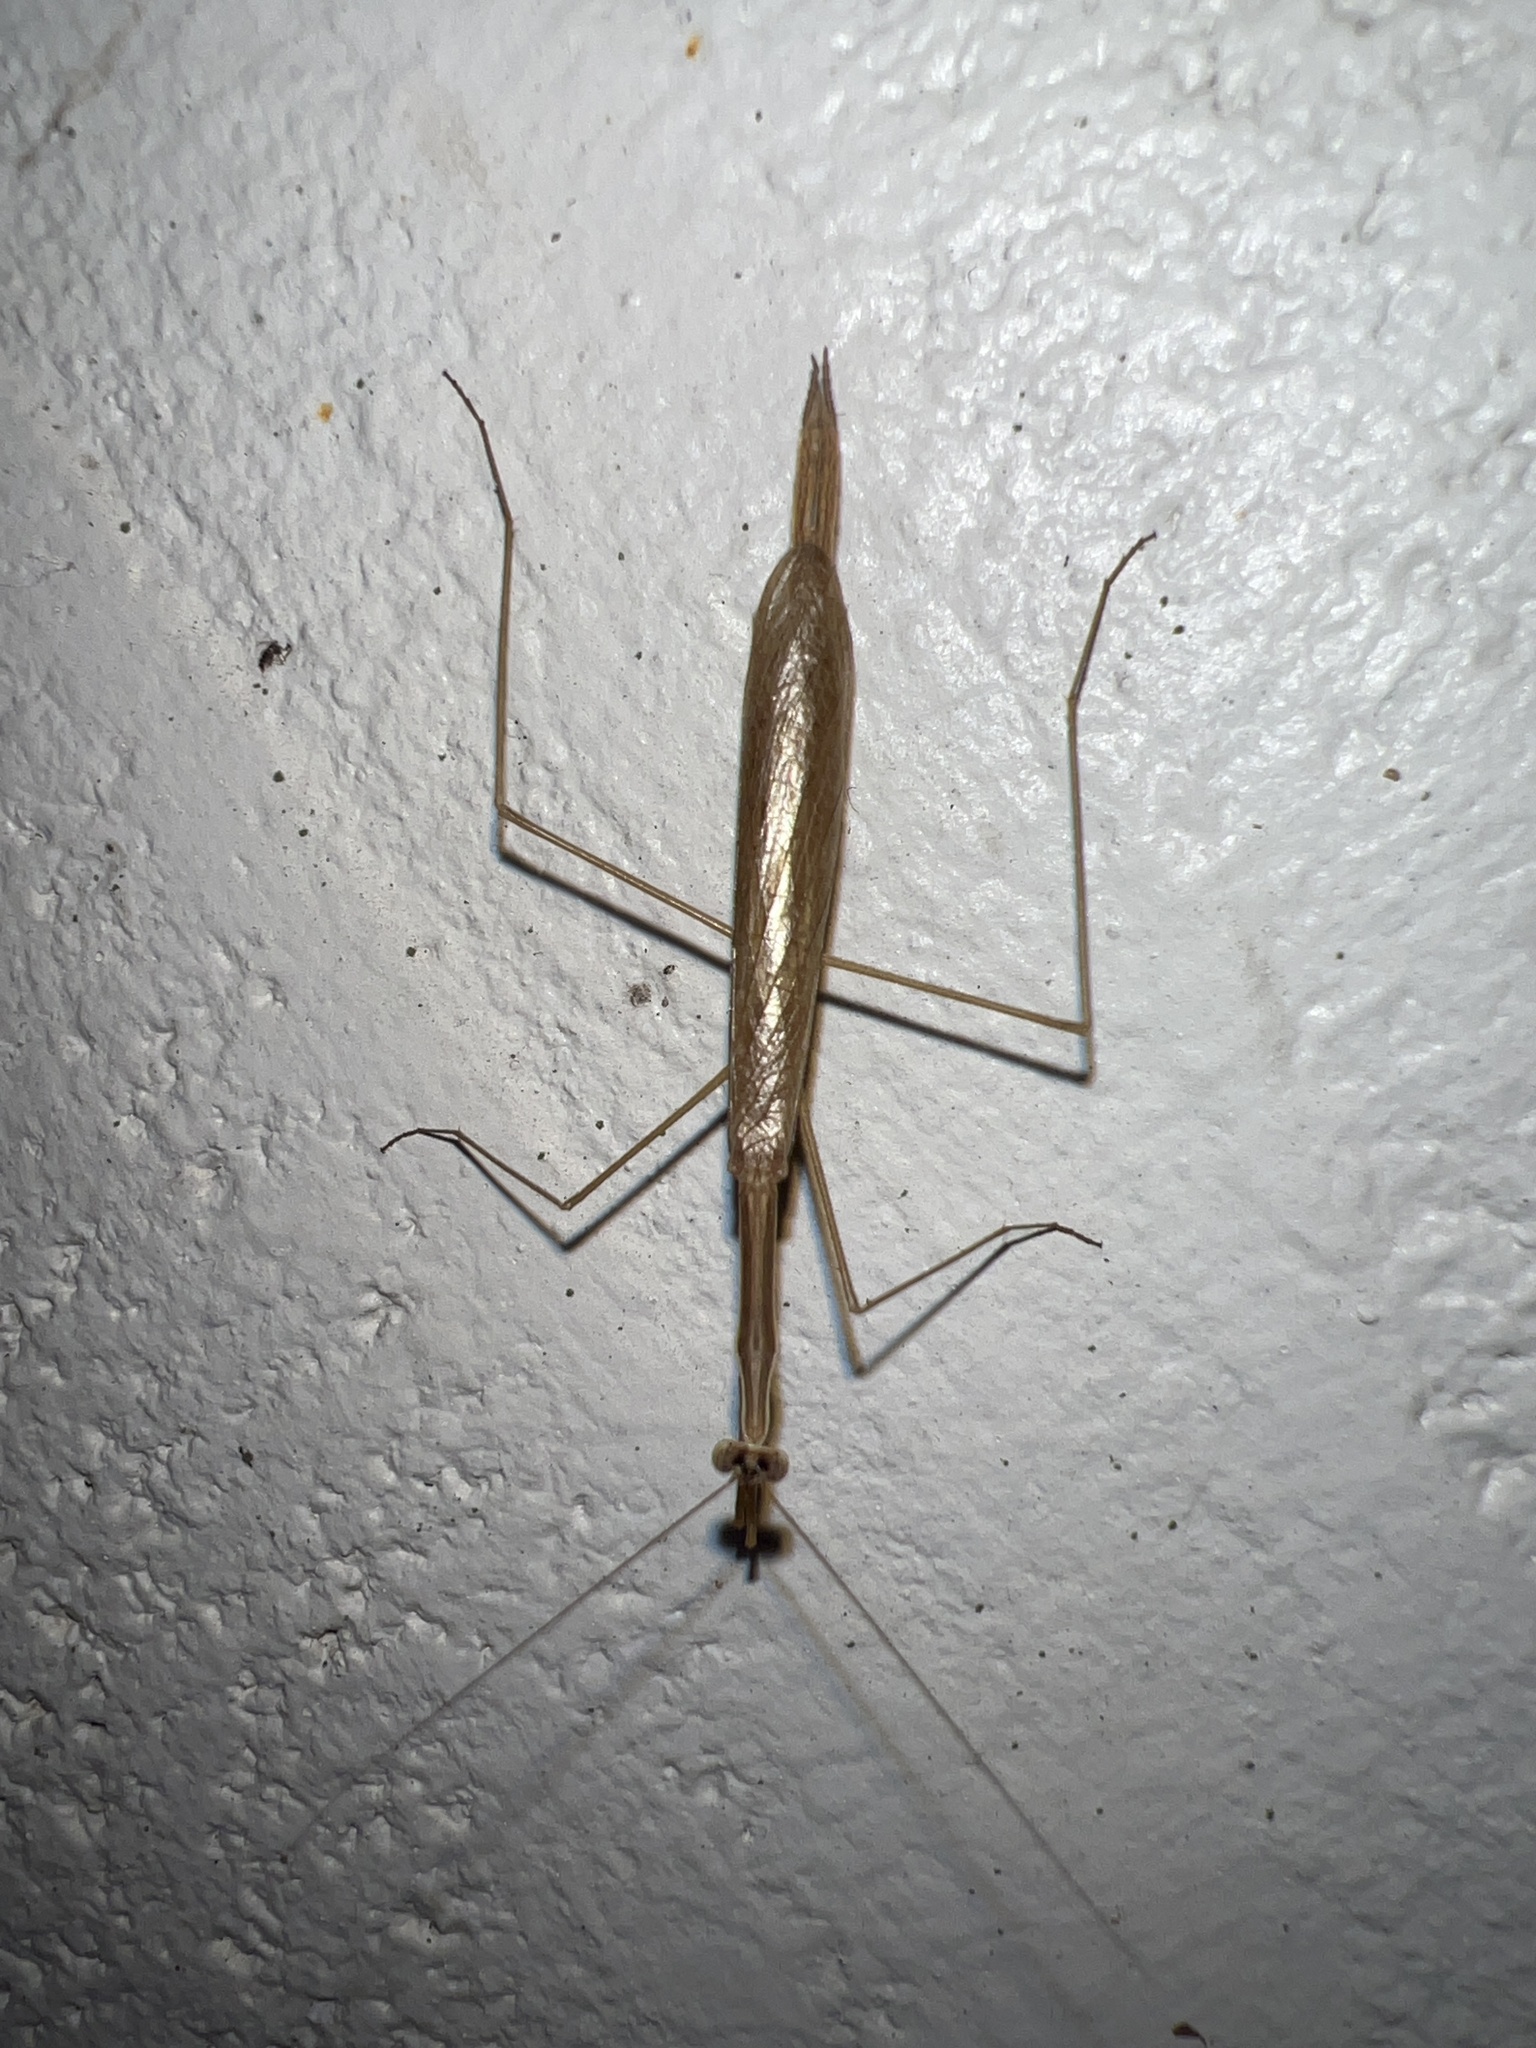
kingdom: Animalia
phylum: Arthropoda
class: Insecta
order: Mantodea
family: Thespidae
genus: Bistanta
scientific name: Bistanta campestris
